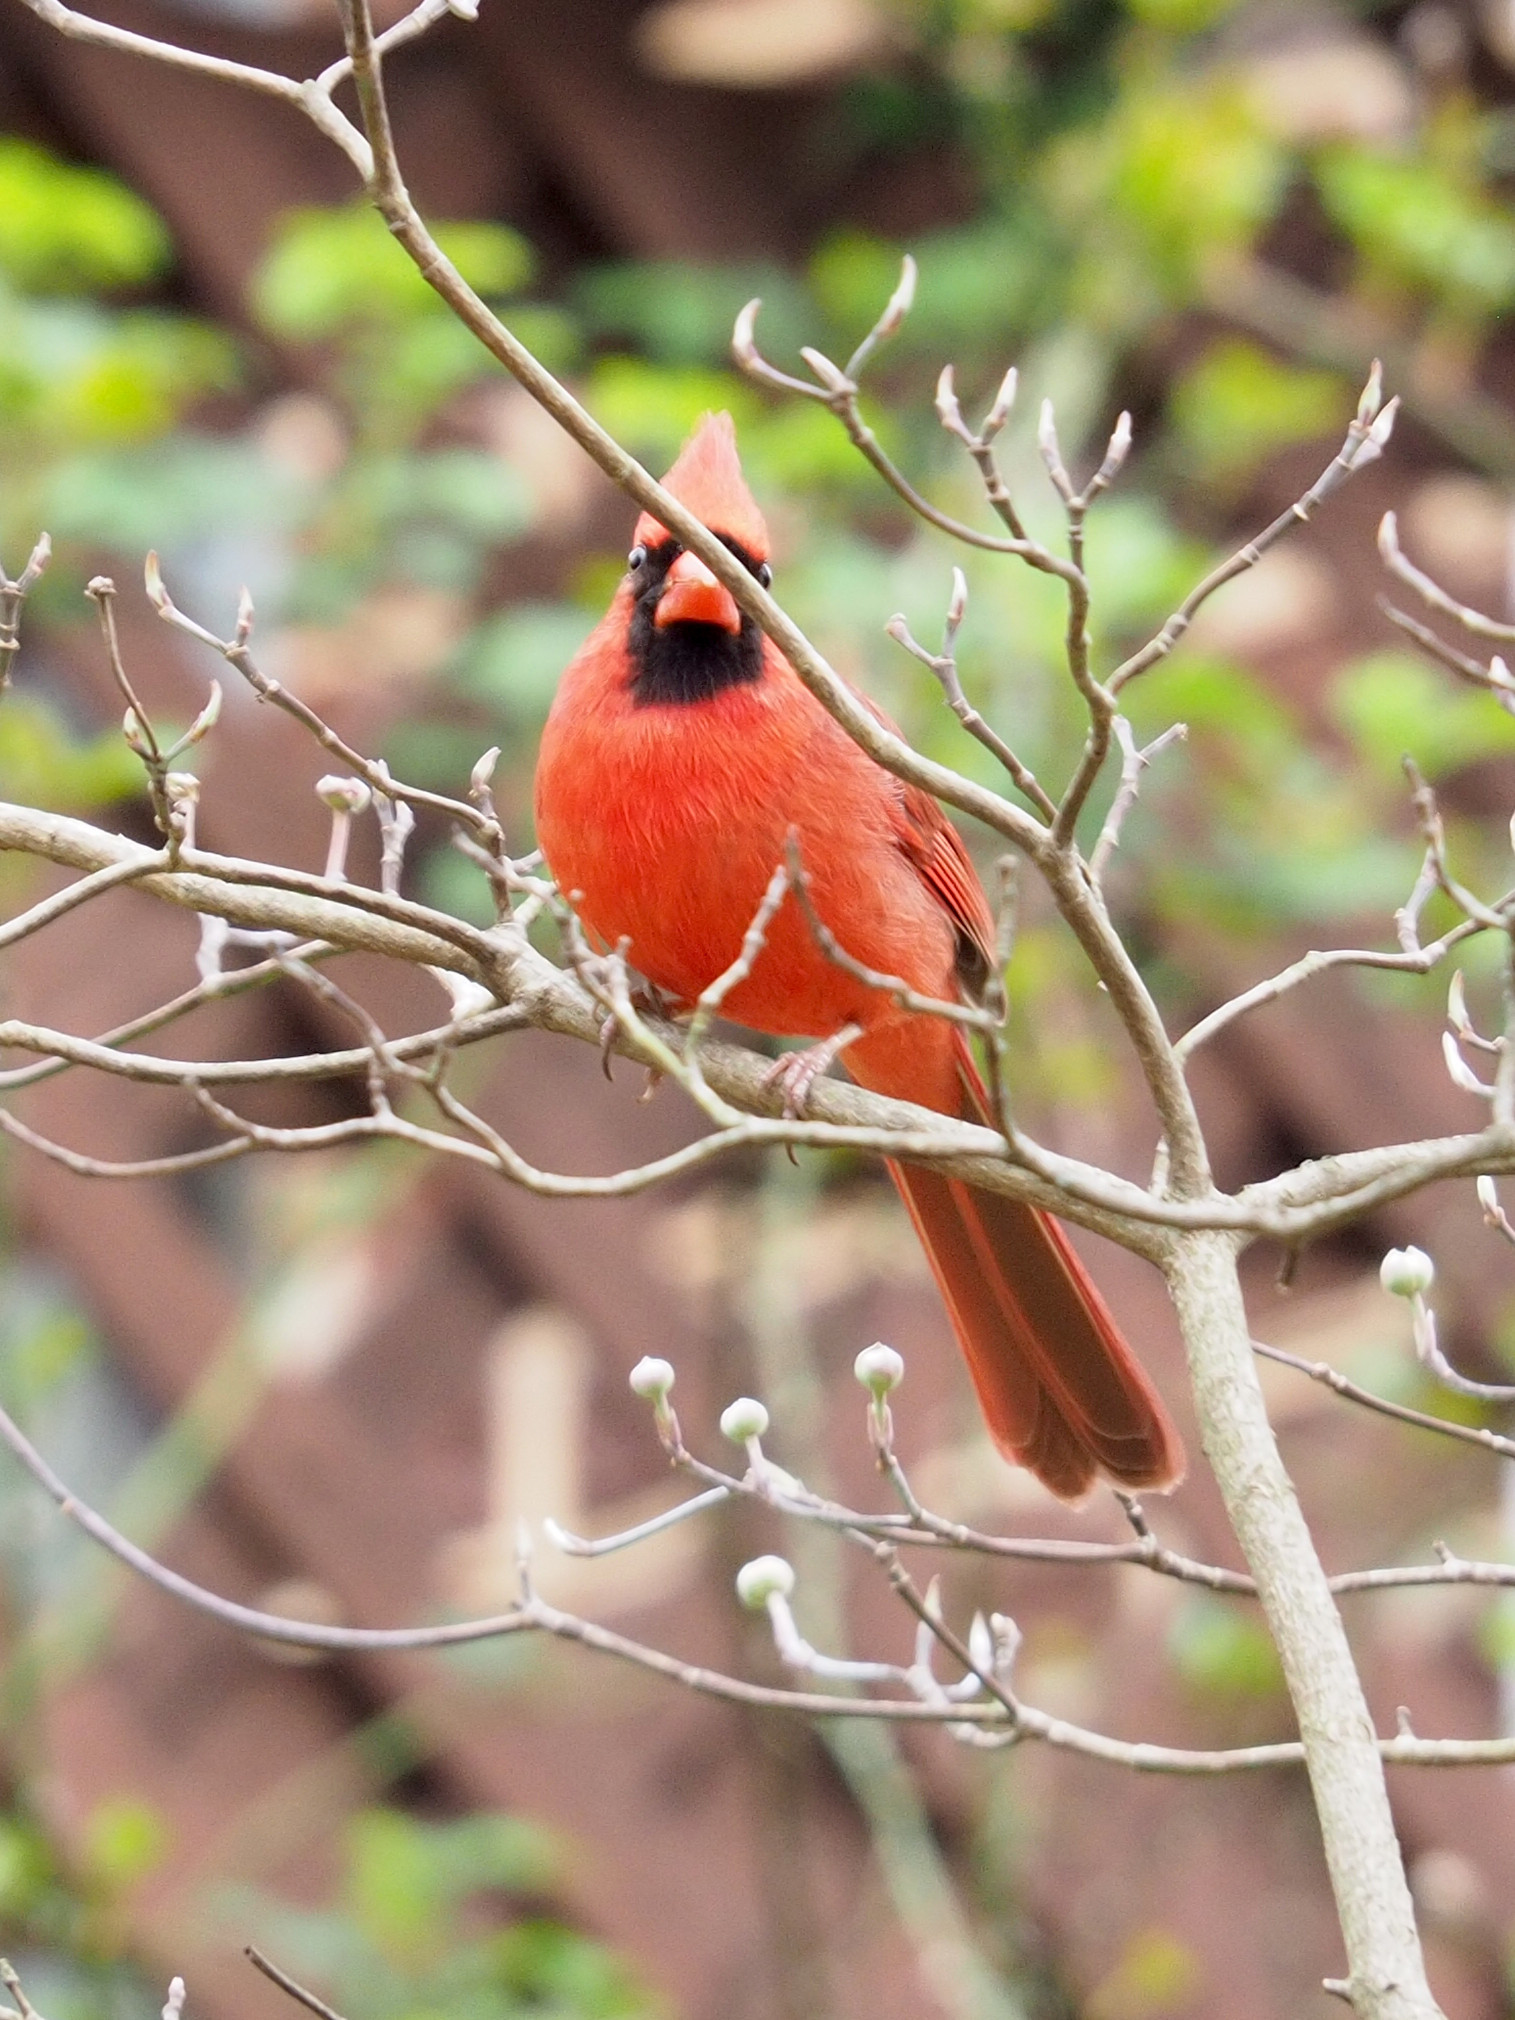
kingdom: Animalia
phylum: Chordata
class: Aves
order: Passeriformes
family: Cardinalidae
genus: Cardinalis
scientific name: Cardinalis cardinalis
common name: Northern cardinal
